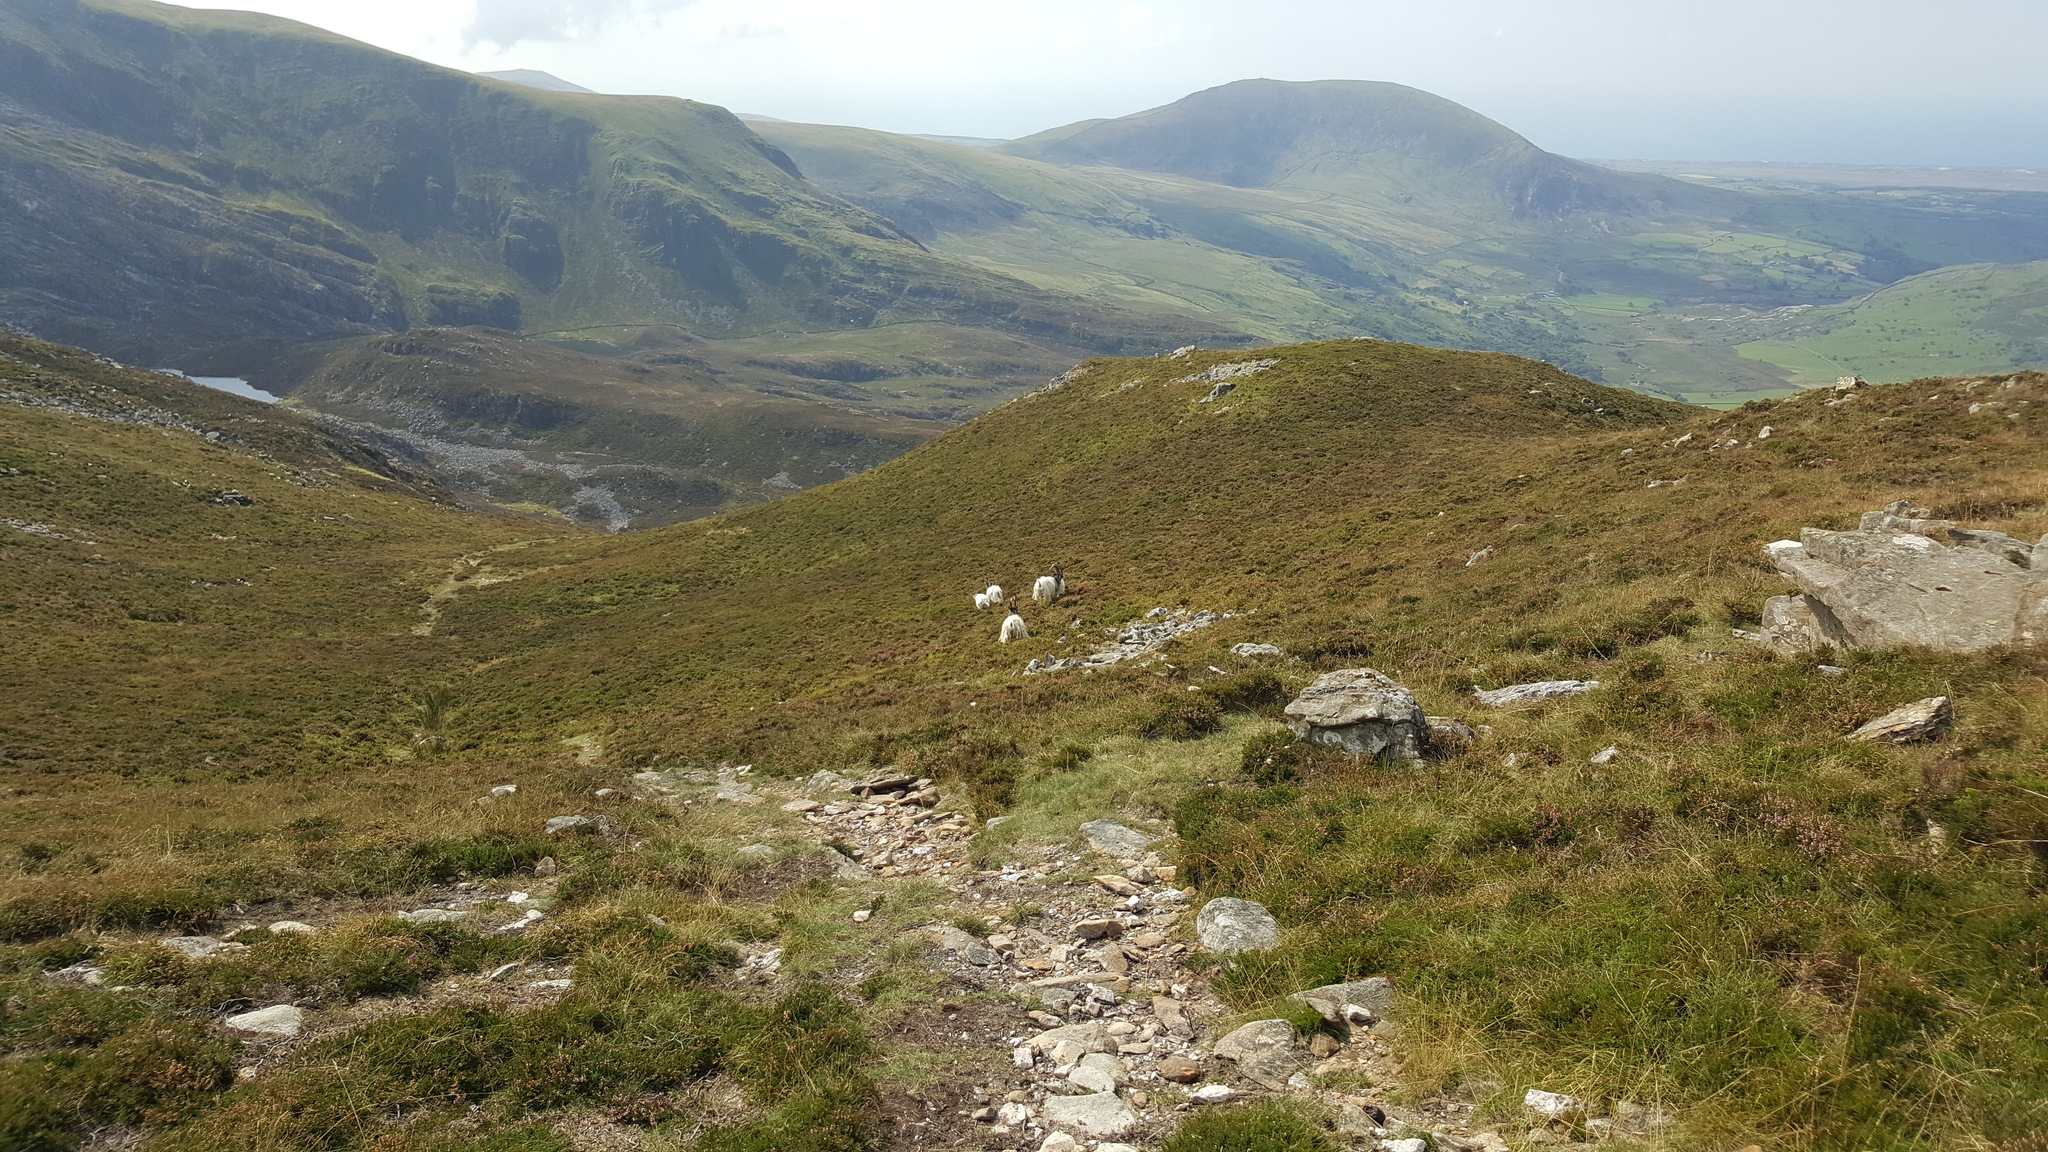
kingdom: Animalia
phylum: Chordata
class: Mammalia
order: Artiodactyla
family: Bovidae
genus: Capra
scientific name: Capra hircus
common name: Domestic goat
